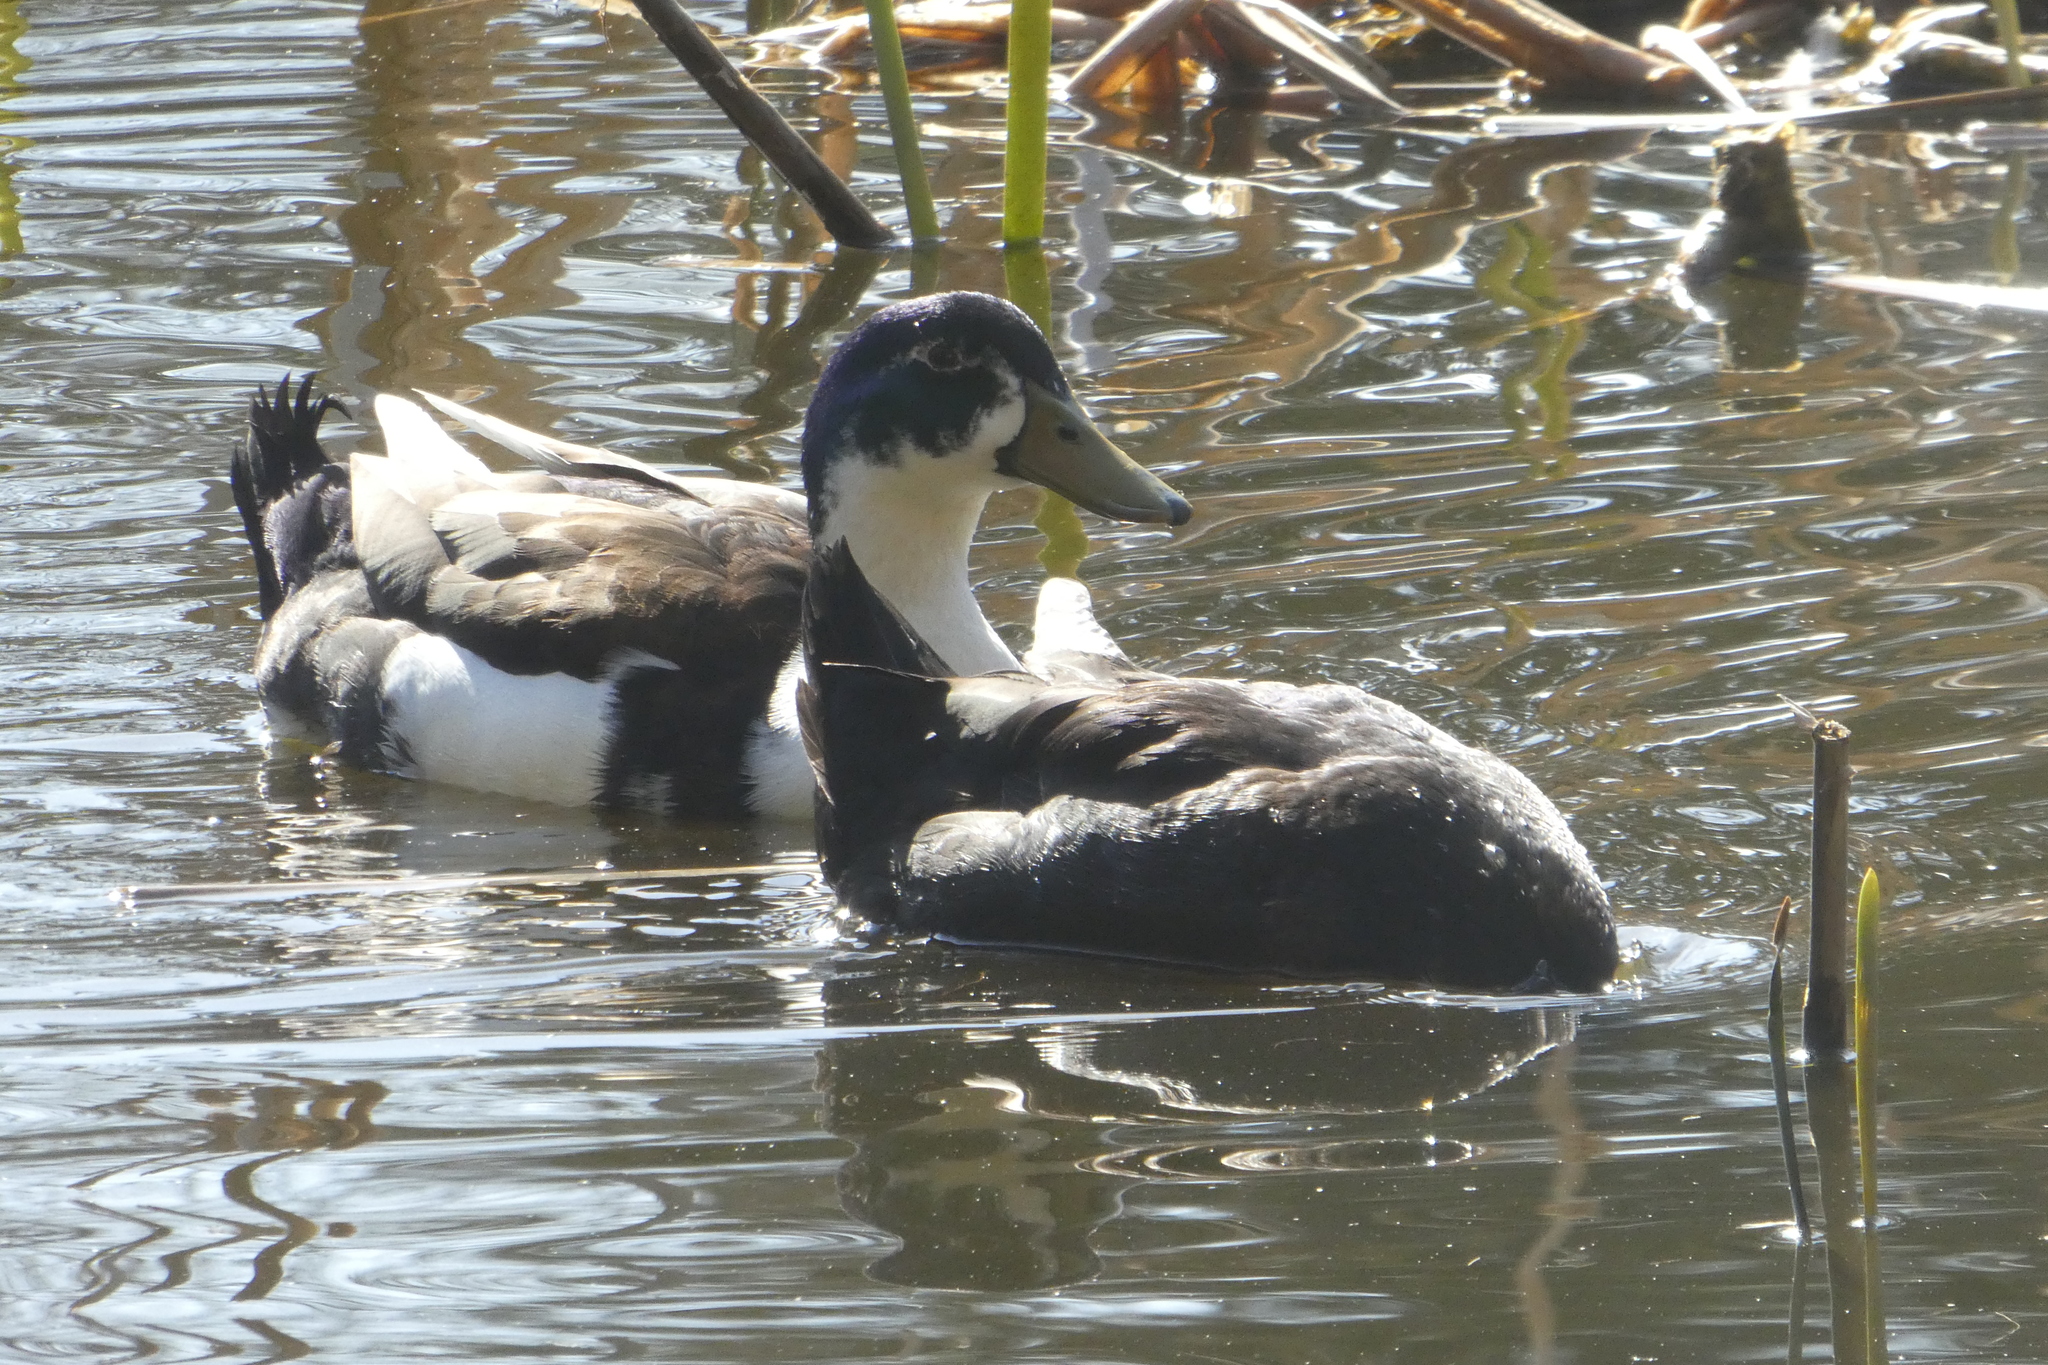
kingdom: Animalia
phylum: Chordata
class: Aves
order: Anseriformes
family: Anatidae
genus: Anas
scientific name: Anas platyrhynchos
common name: Mallard
